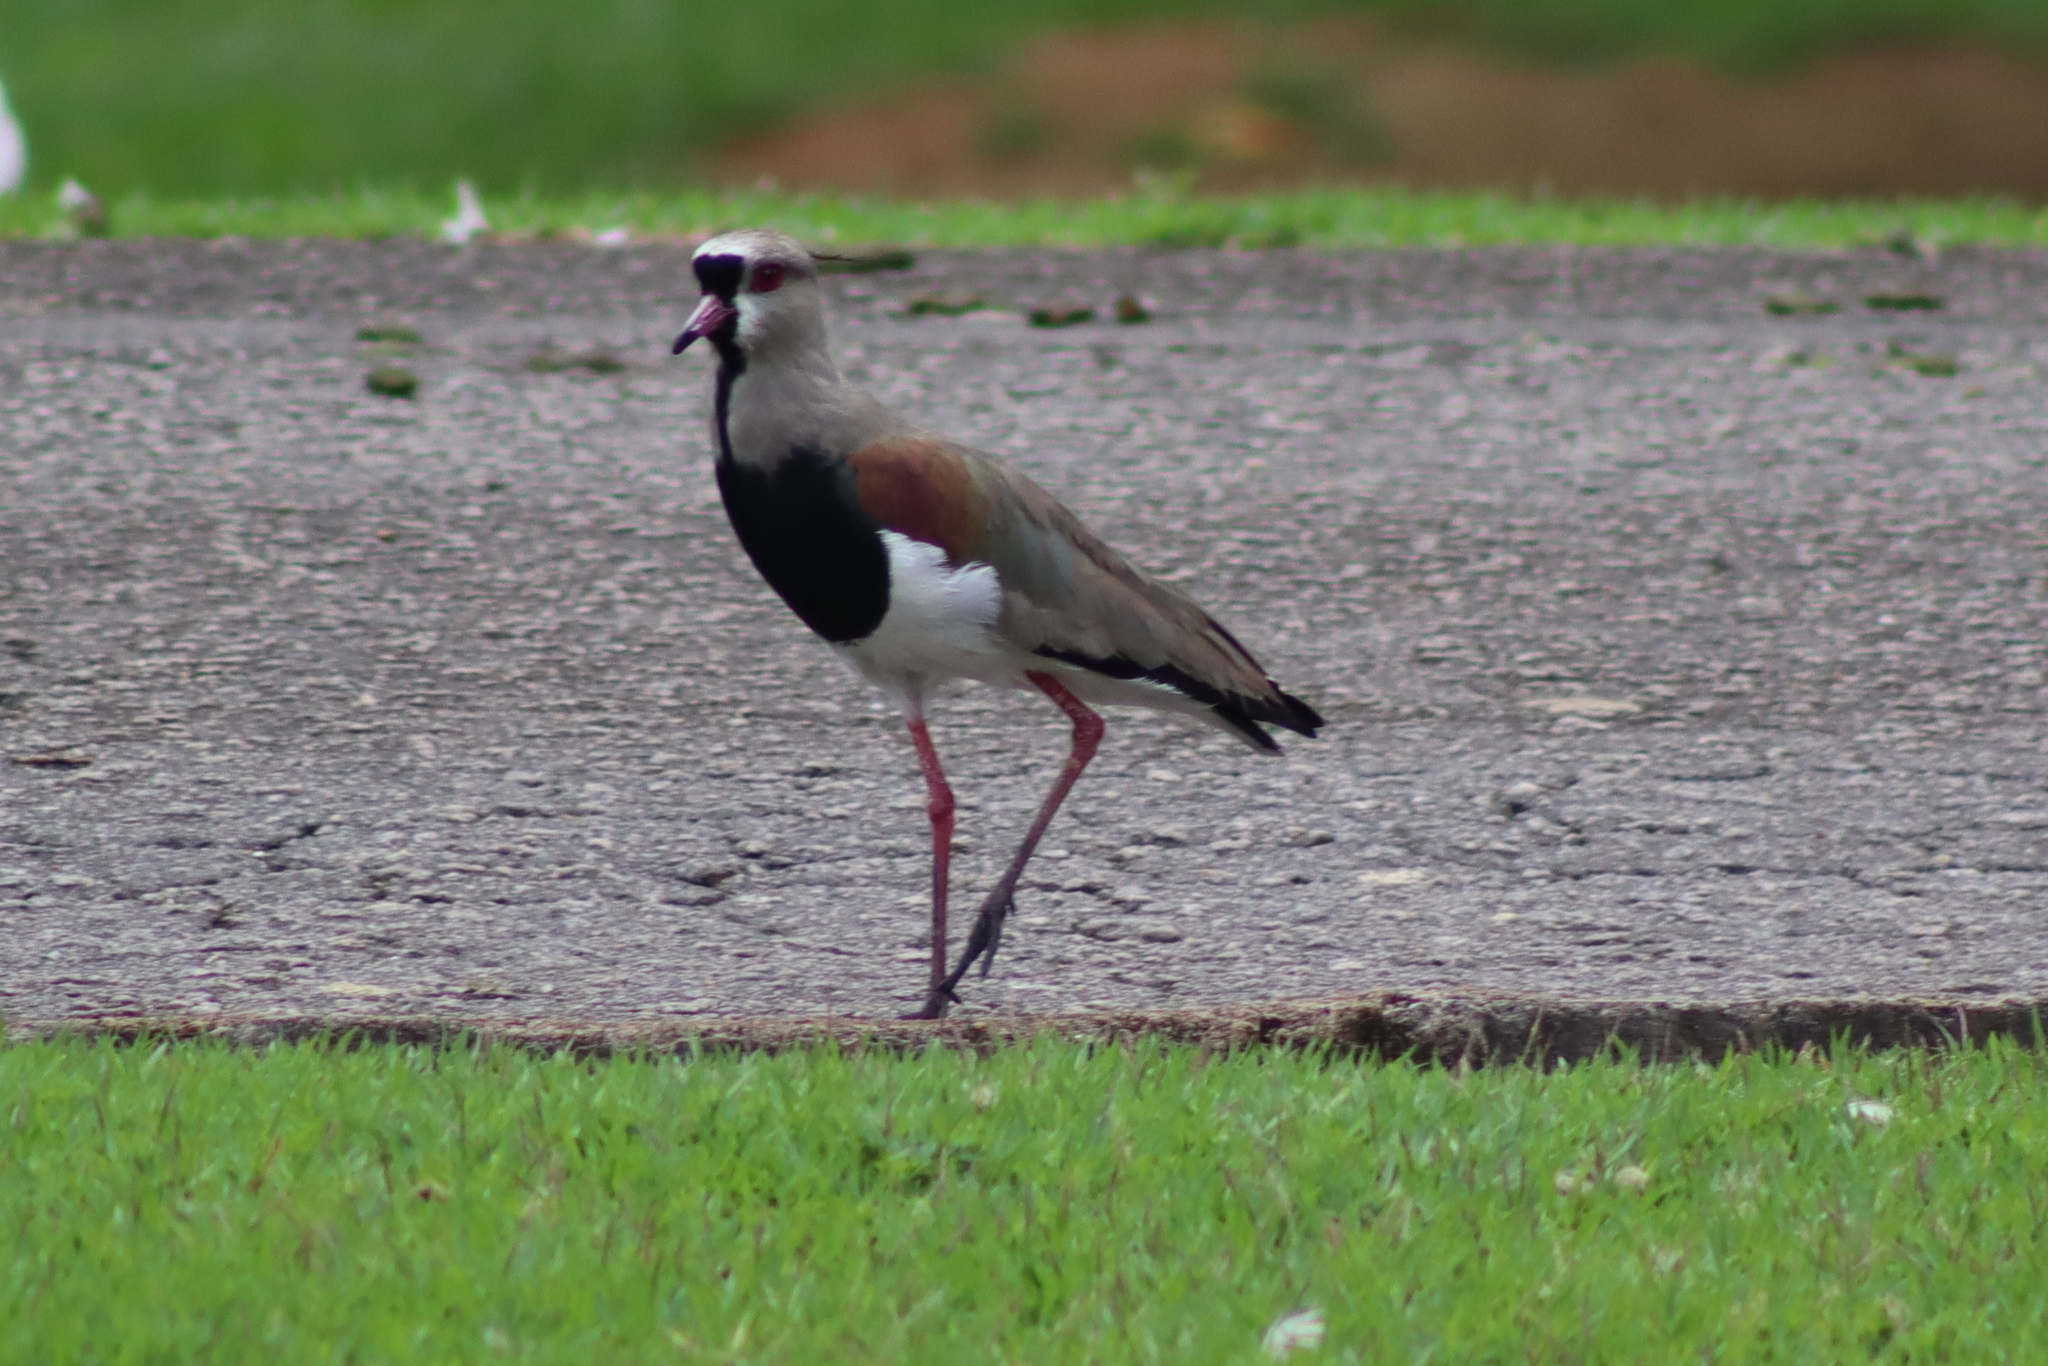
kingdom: Animalia
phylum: Chordata
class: Aves
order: Charadriiformes
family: Charadriidae
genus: Vanellus
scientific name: Vanellus chilensis
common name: Southern lapwing
